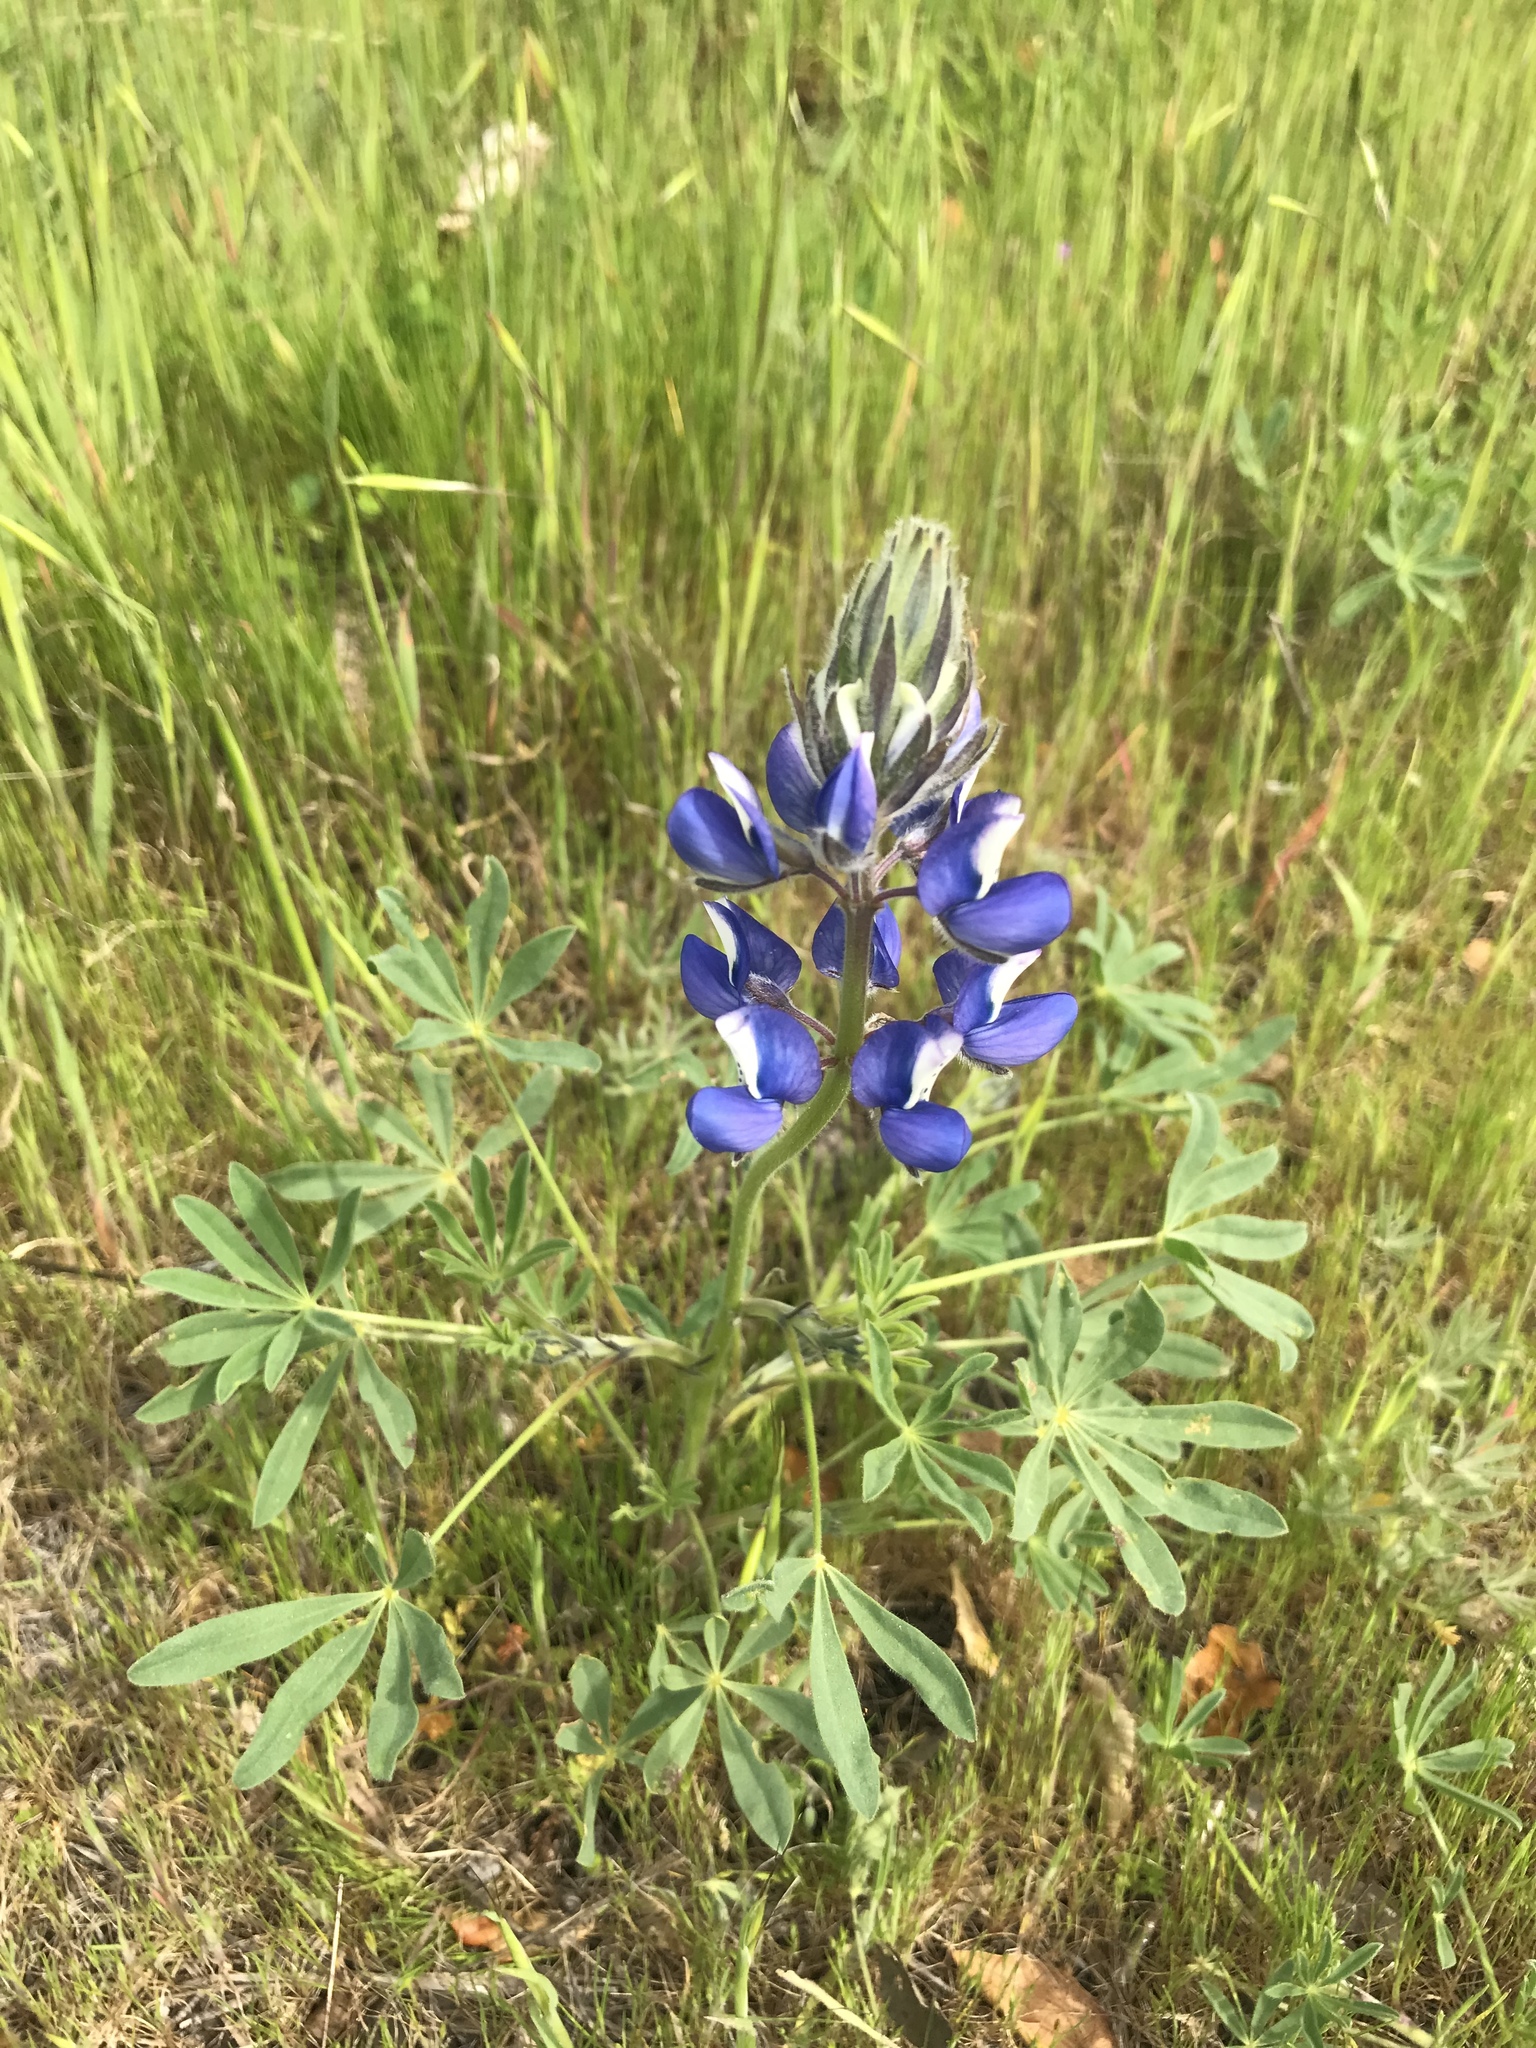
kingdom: Plantae
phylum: Tracheophyta
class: Magnoliopsida
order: Fabales
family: Fabaceae
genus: Lupinus
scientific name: Lupinus nanus
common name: Orean blue lupin
